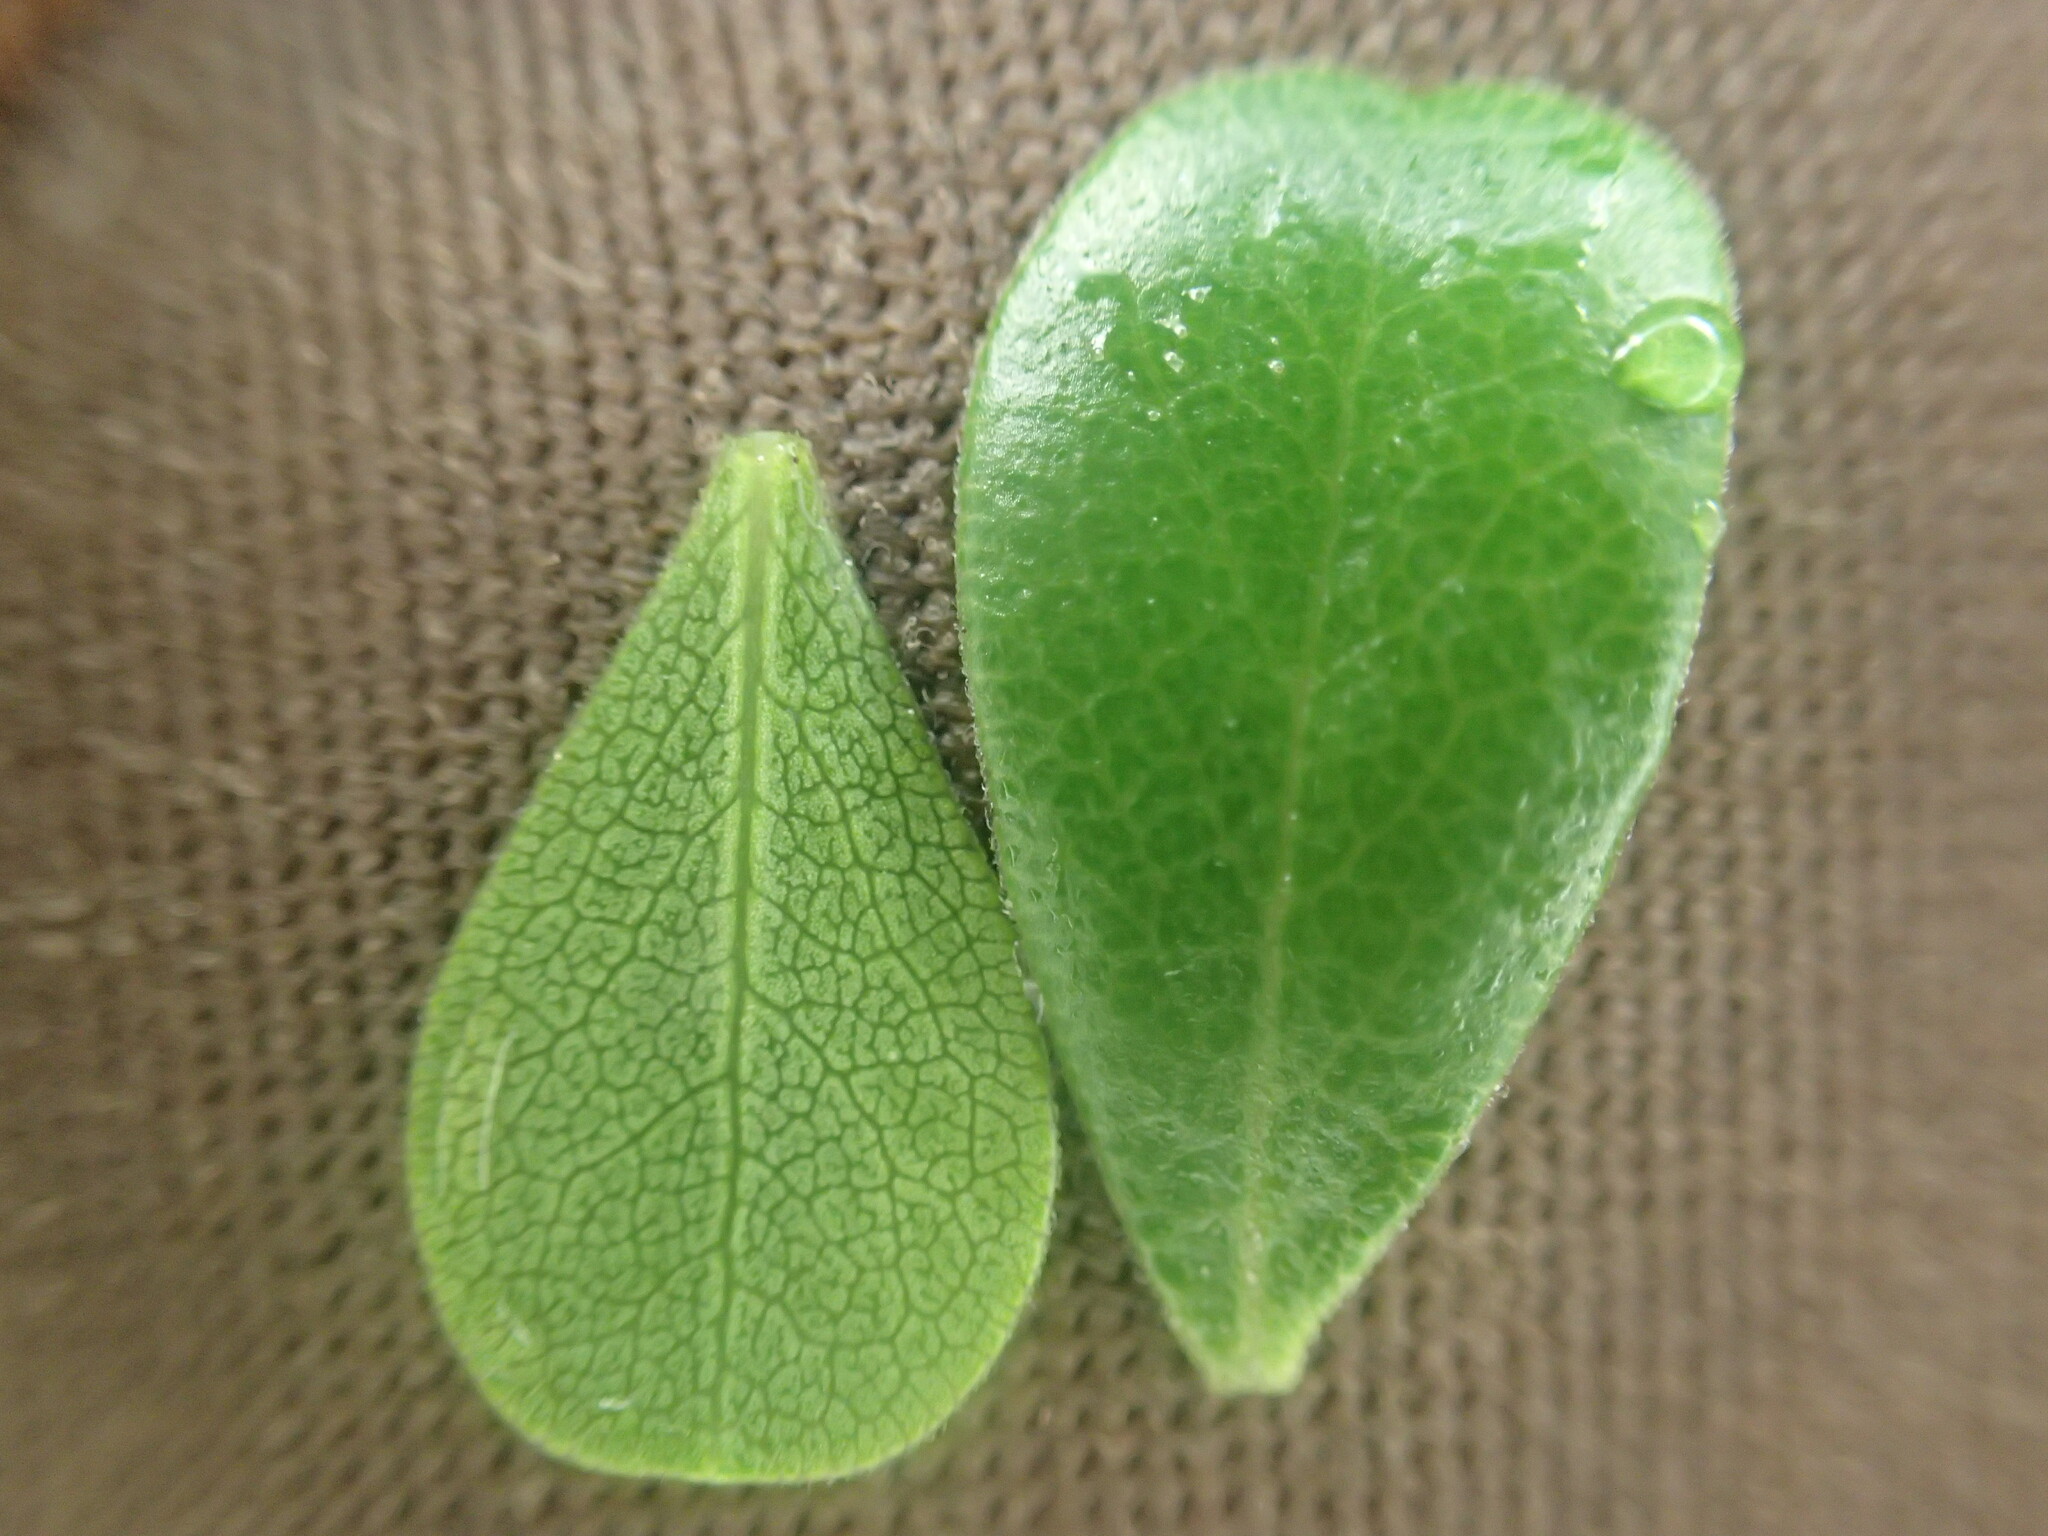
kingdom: Plantae
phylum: Tracheophyta
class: Magnoliopsida
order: Ericales
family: Ericaceae
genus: Arctostaphylos
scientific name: Arctostaphylos uva-ursi
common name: Bearberry
